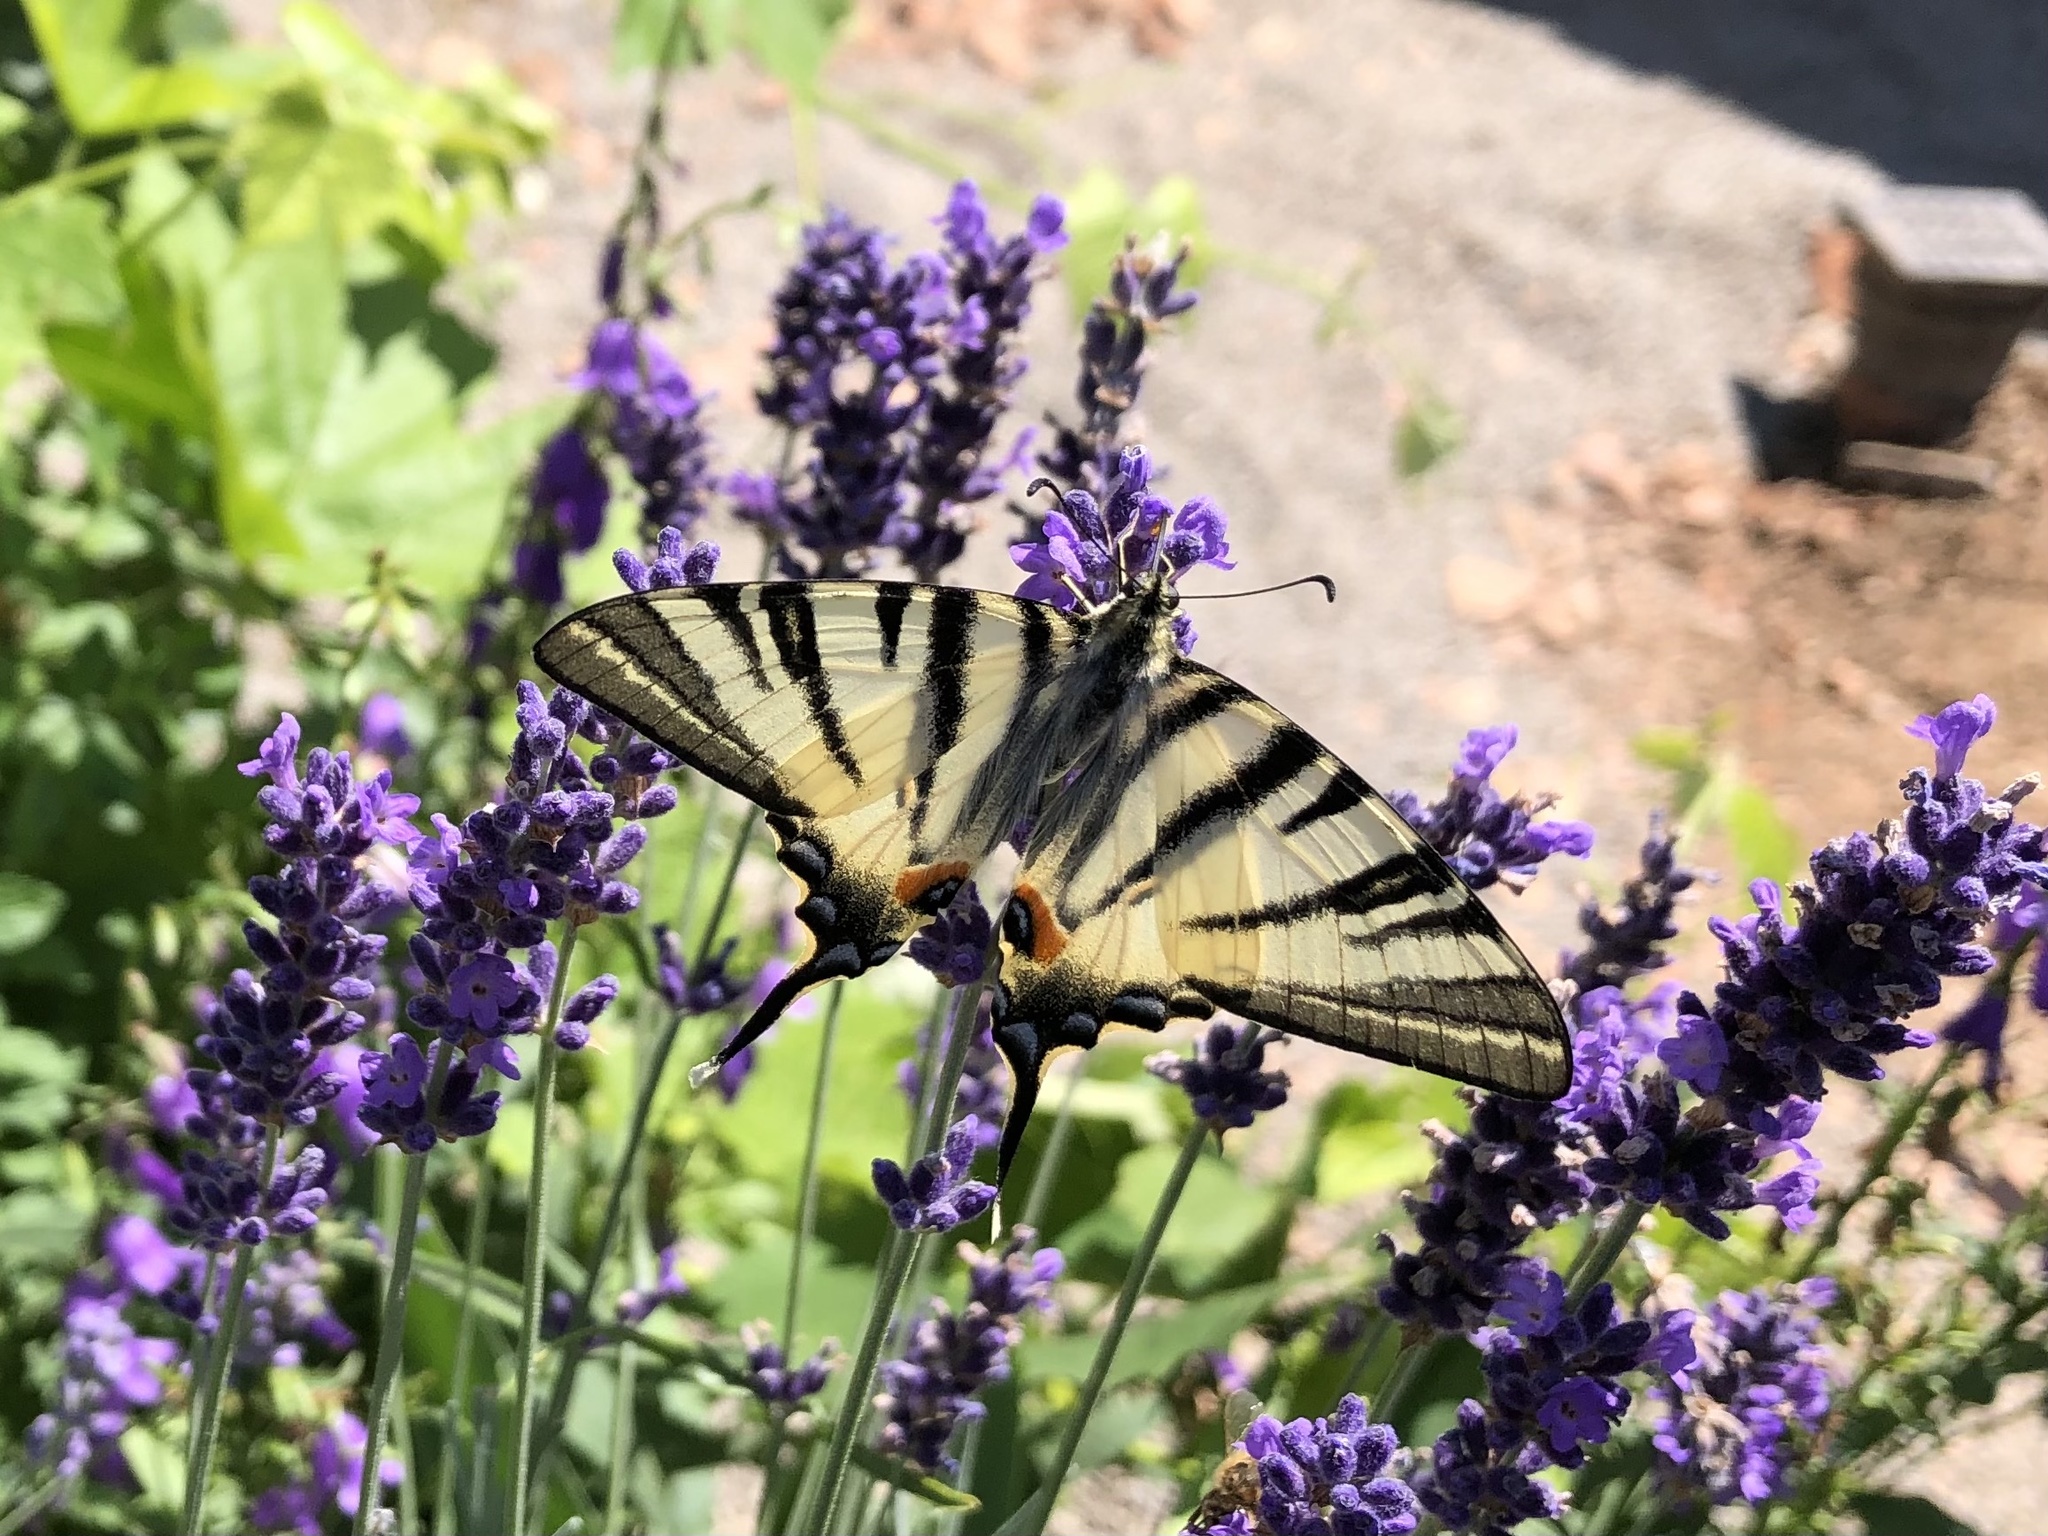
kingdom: Animalia
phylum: Arthropoda
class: Insecta
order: Lepidoptera
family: Papilionidae
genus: Iphiclides
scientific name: Iphiclides podalirius
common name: Scarce swallowtail
